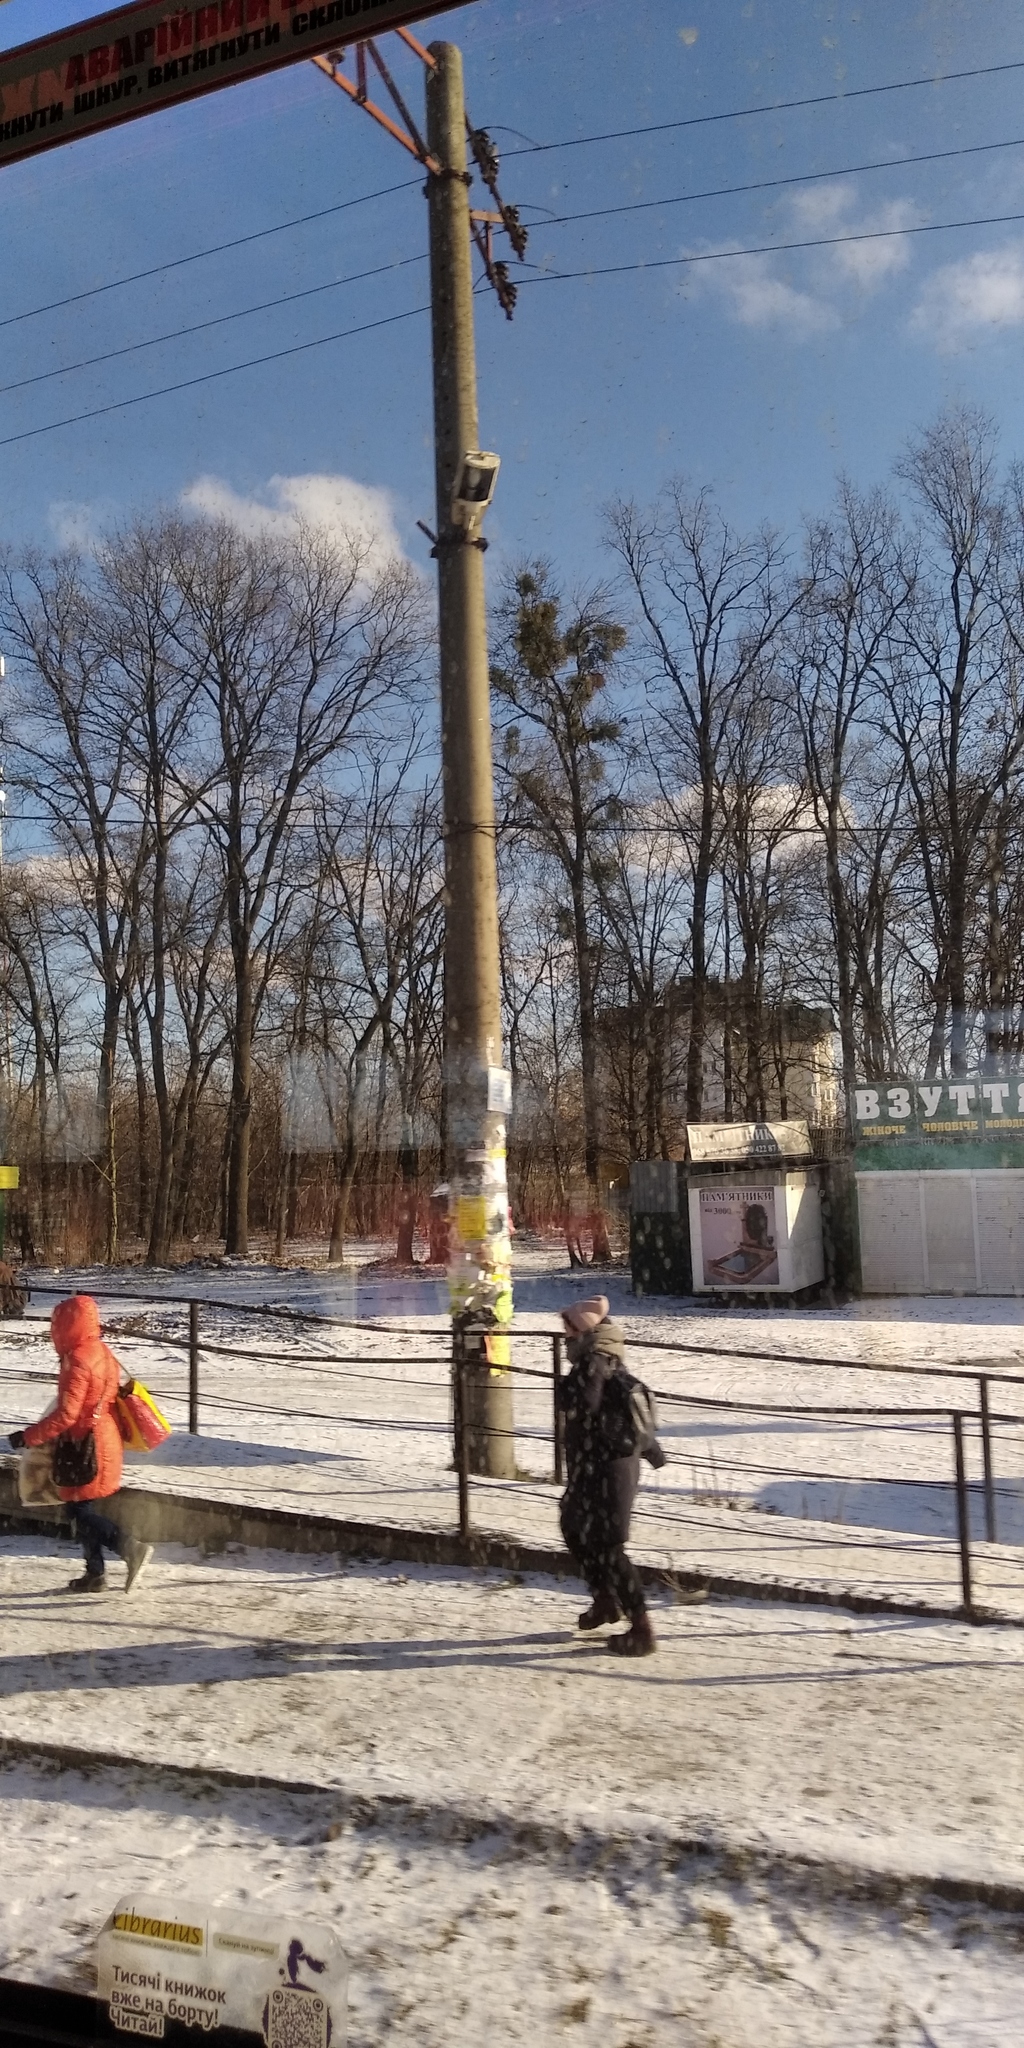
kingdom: Plantae
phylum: Tracheophyta
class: Magnoliopsida
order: Santalales
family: Viscaceae
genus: Viscum
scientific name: Viscum album
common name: Mistletoe
